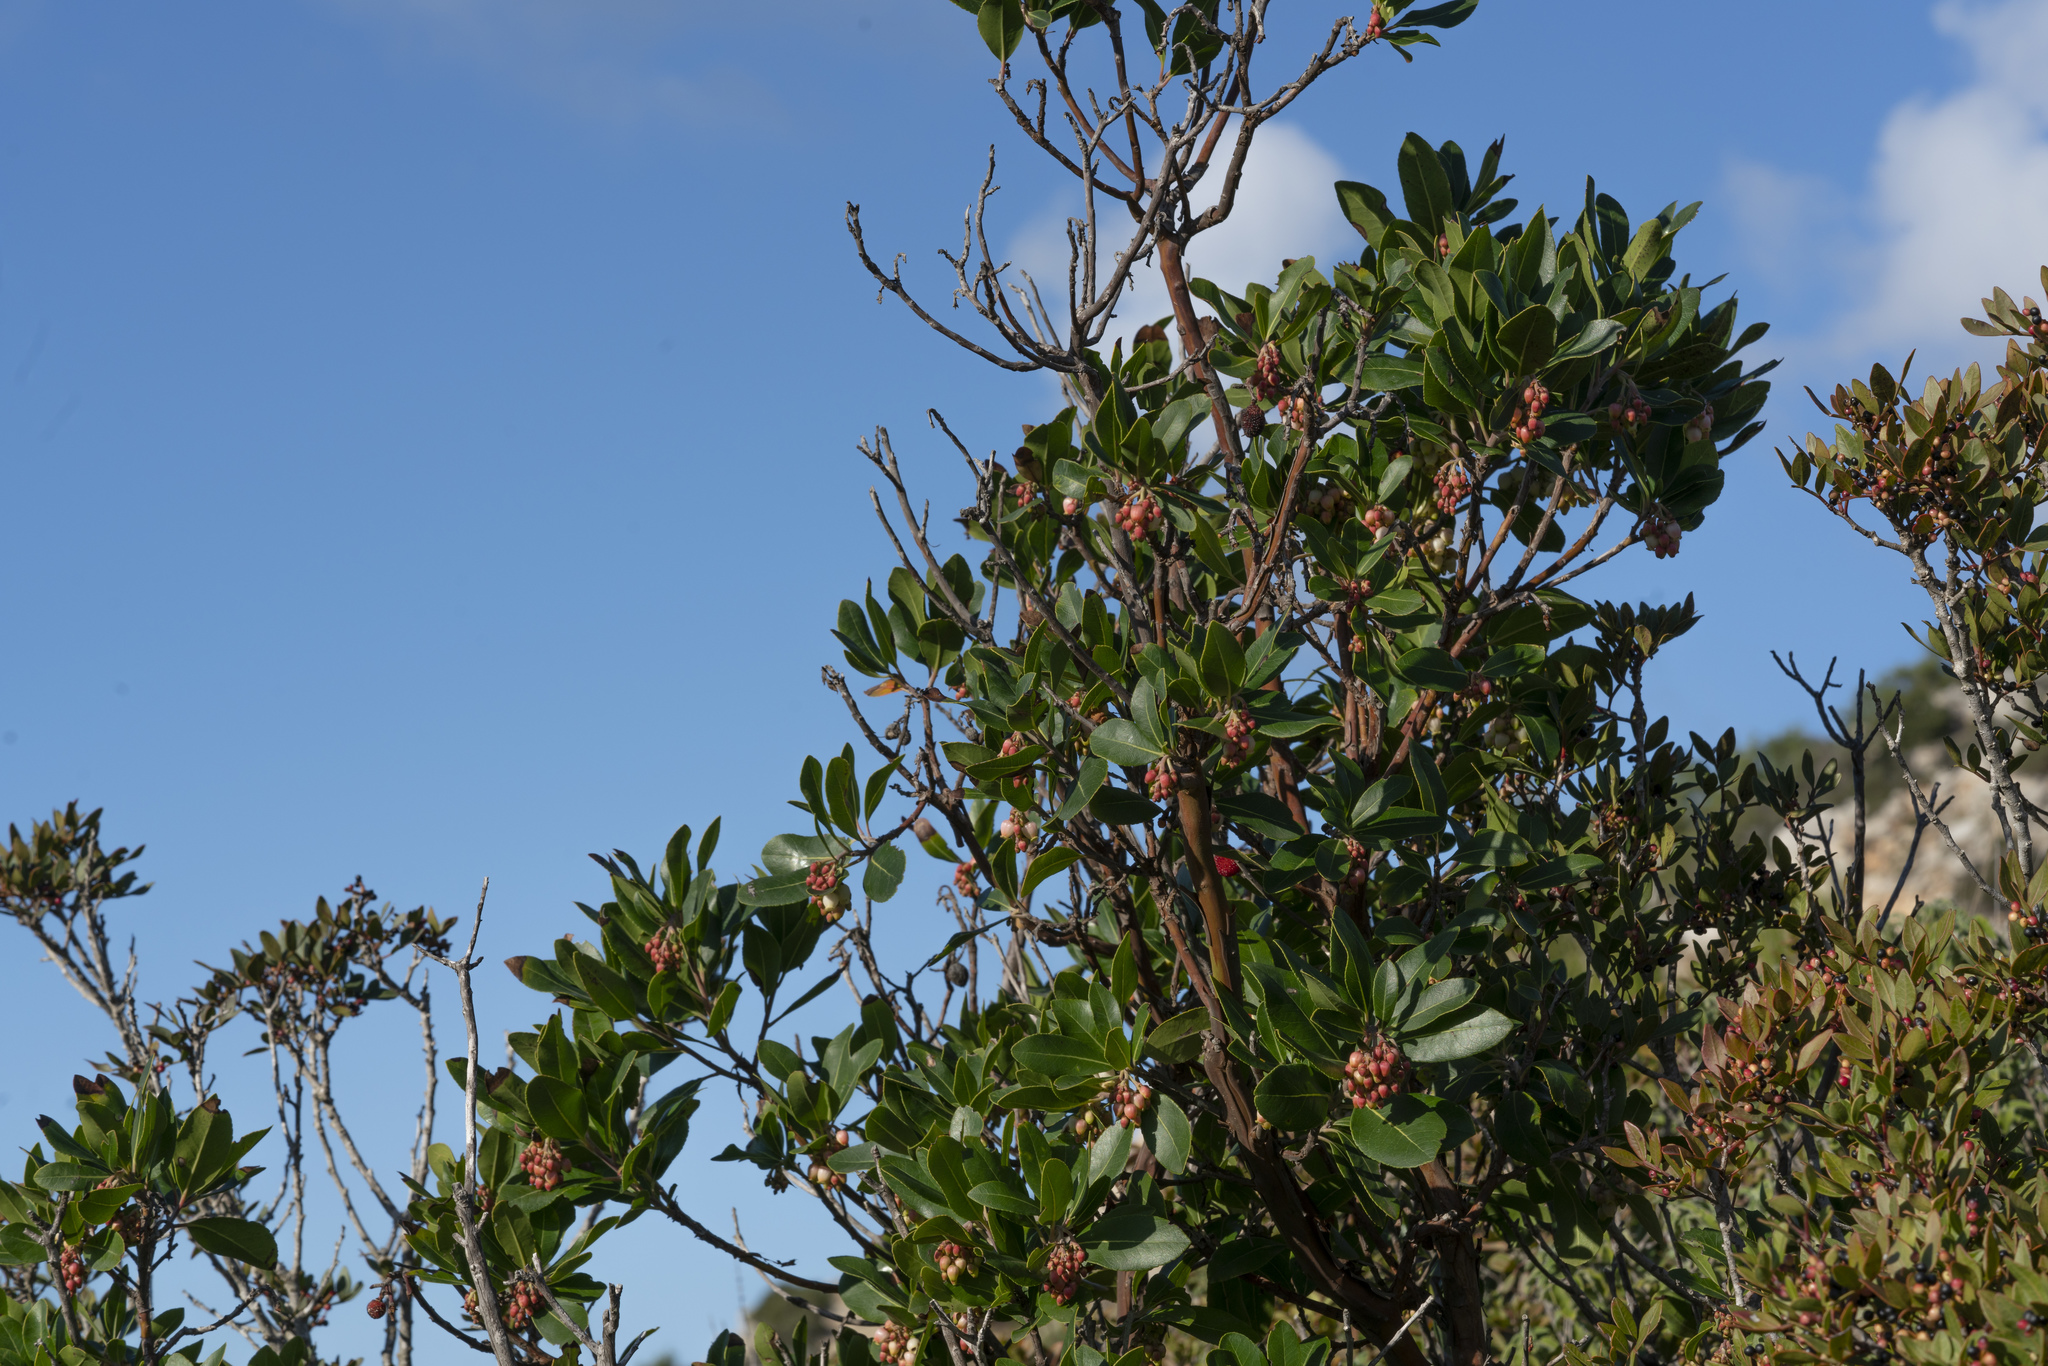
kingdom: Plantae
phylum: Tracheophyta
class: Magnoliopsida
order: Ericales
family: Ericaceae
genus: Arbutus
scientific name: Arbutus andrachnoides
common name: Hybrid strawberry-tree
